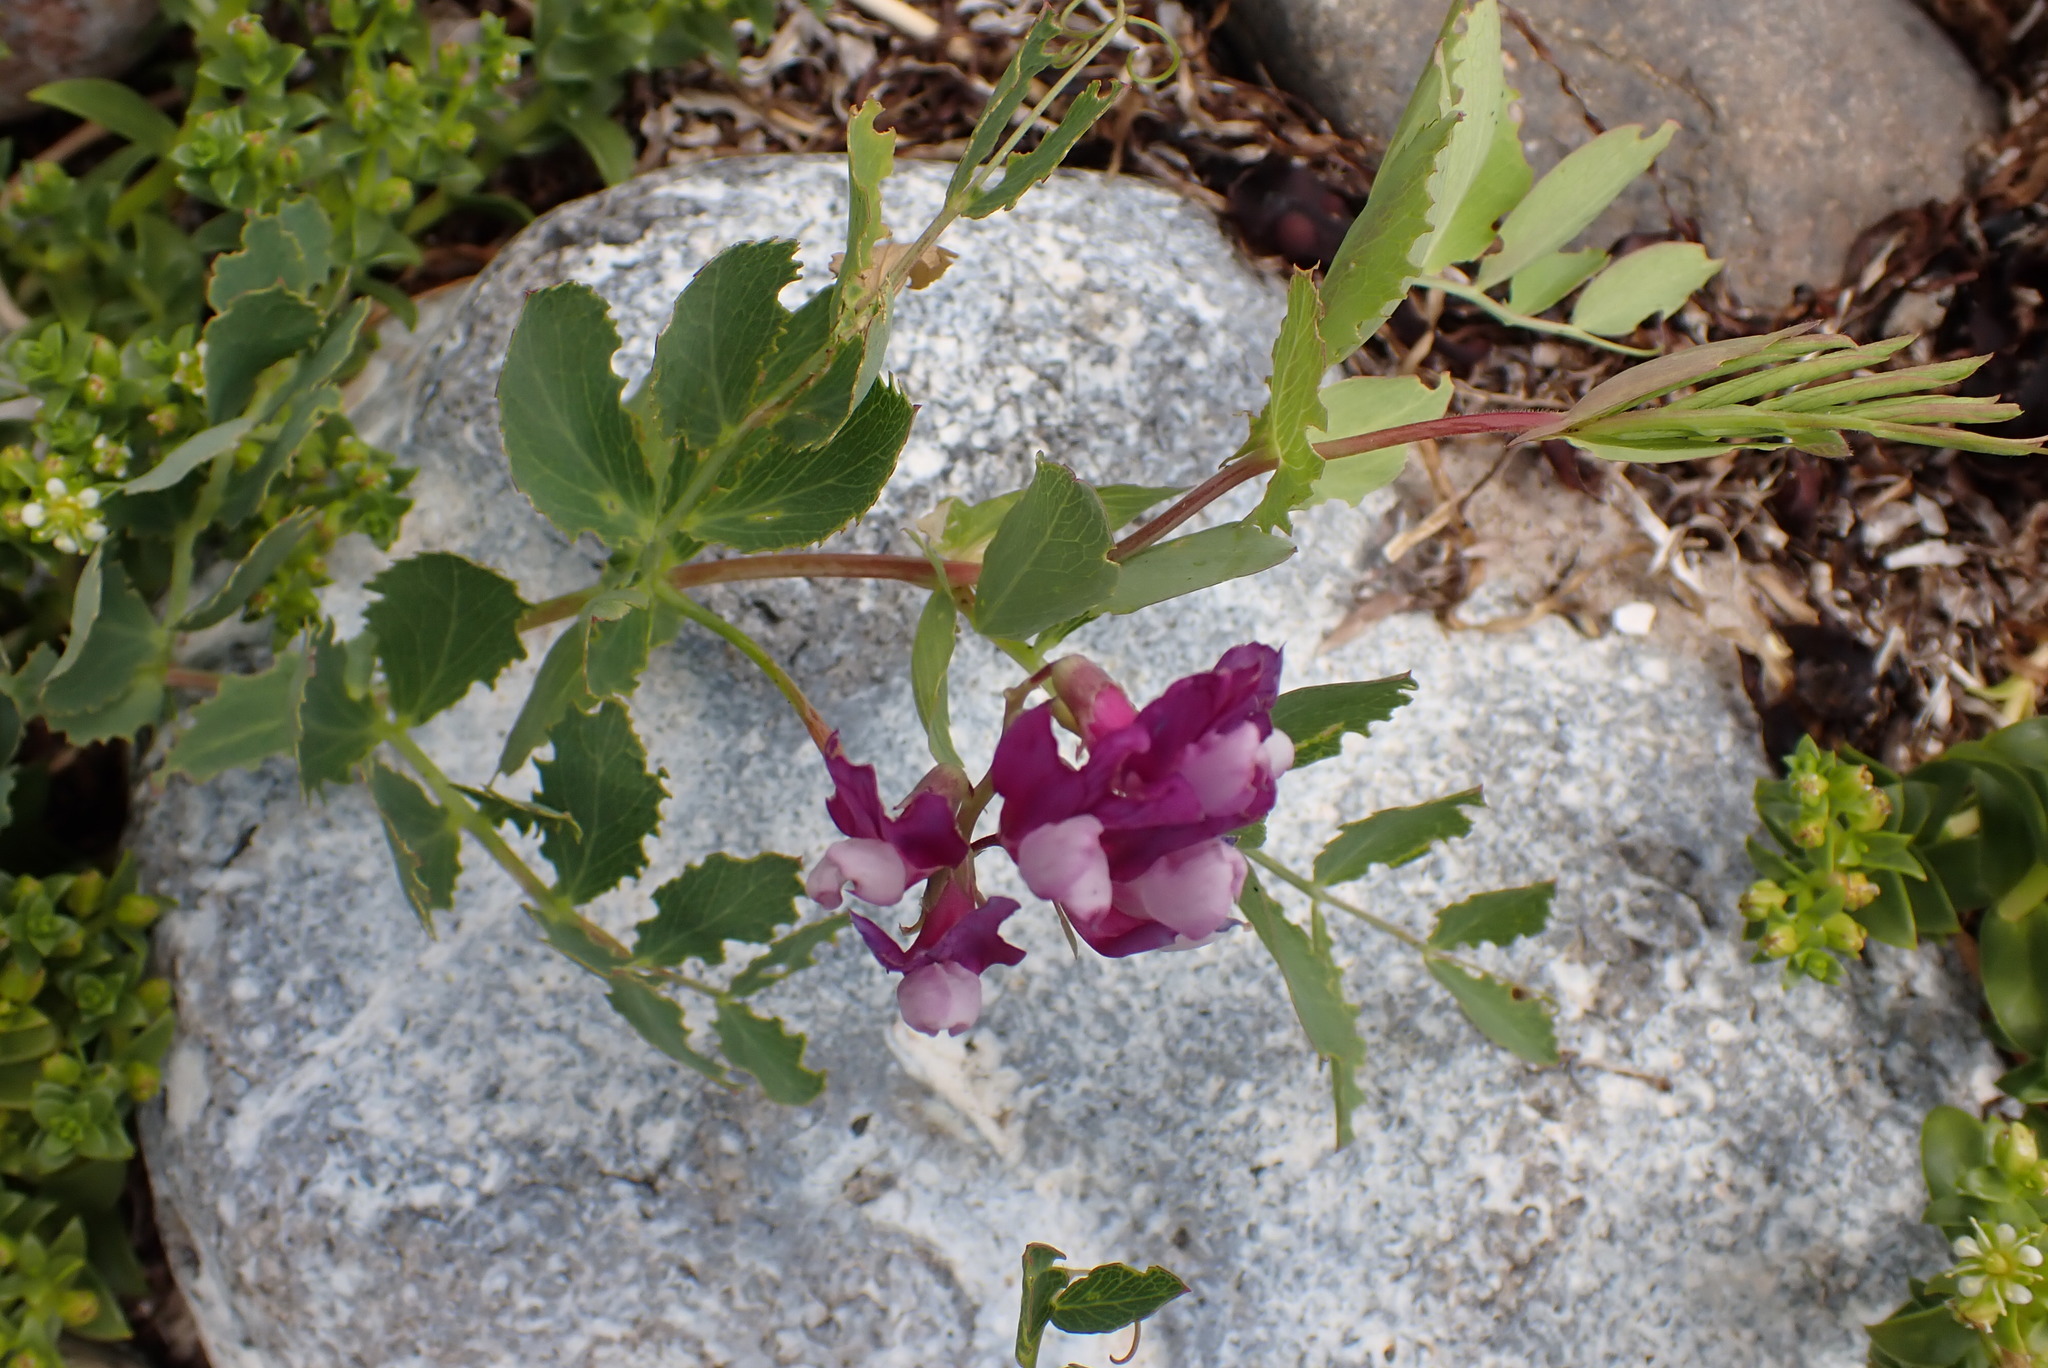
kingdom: Plantae
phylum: Tracheophyta
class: Magnoliopsida
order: Fabales
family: Fabaceae
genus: Lathyrus
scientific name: Lathyrus japonicus
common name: Sea pea
